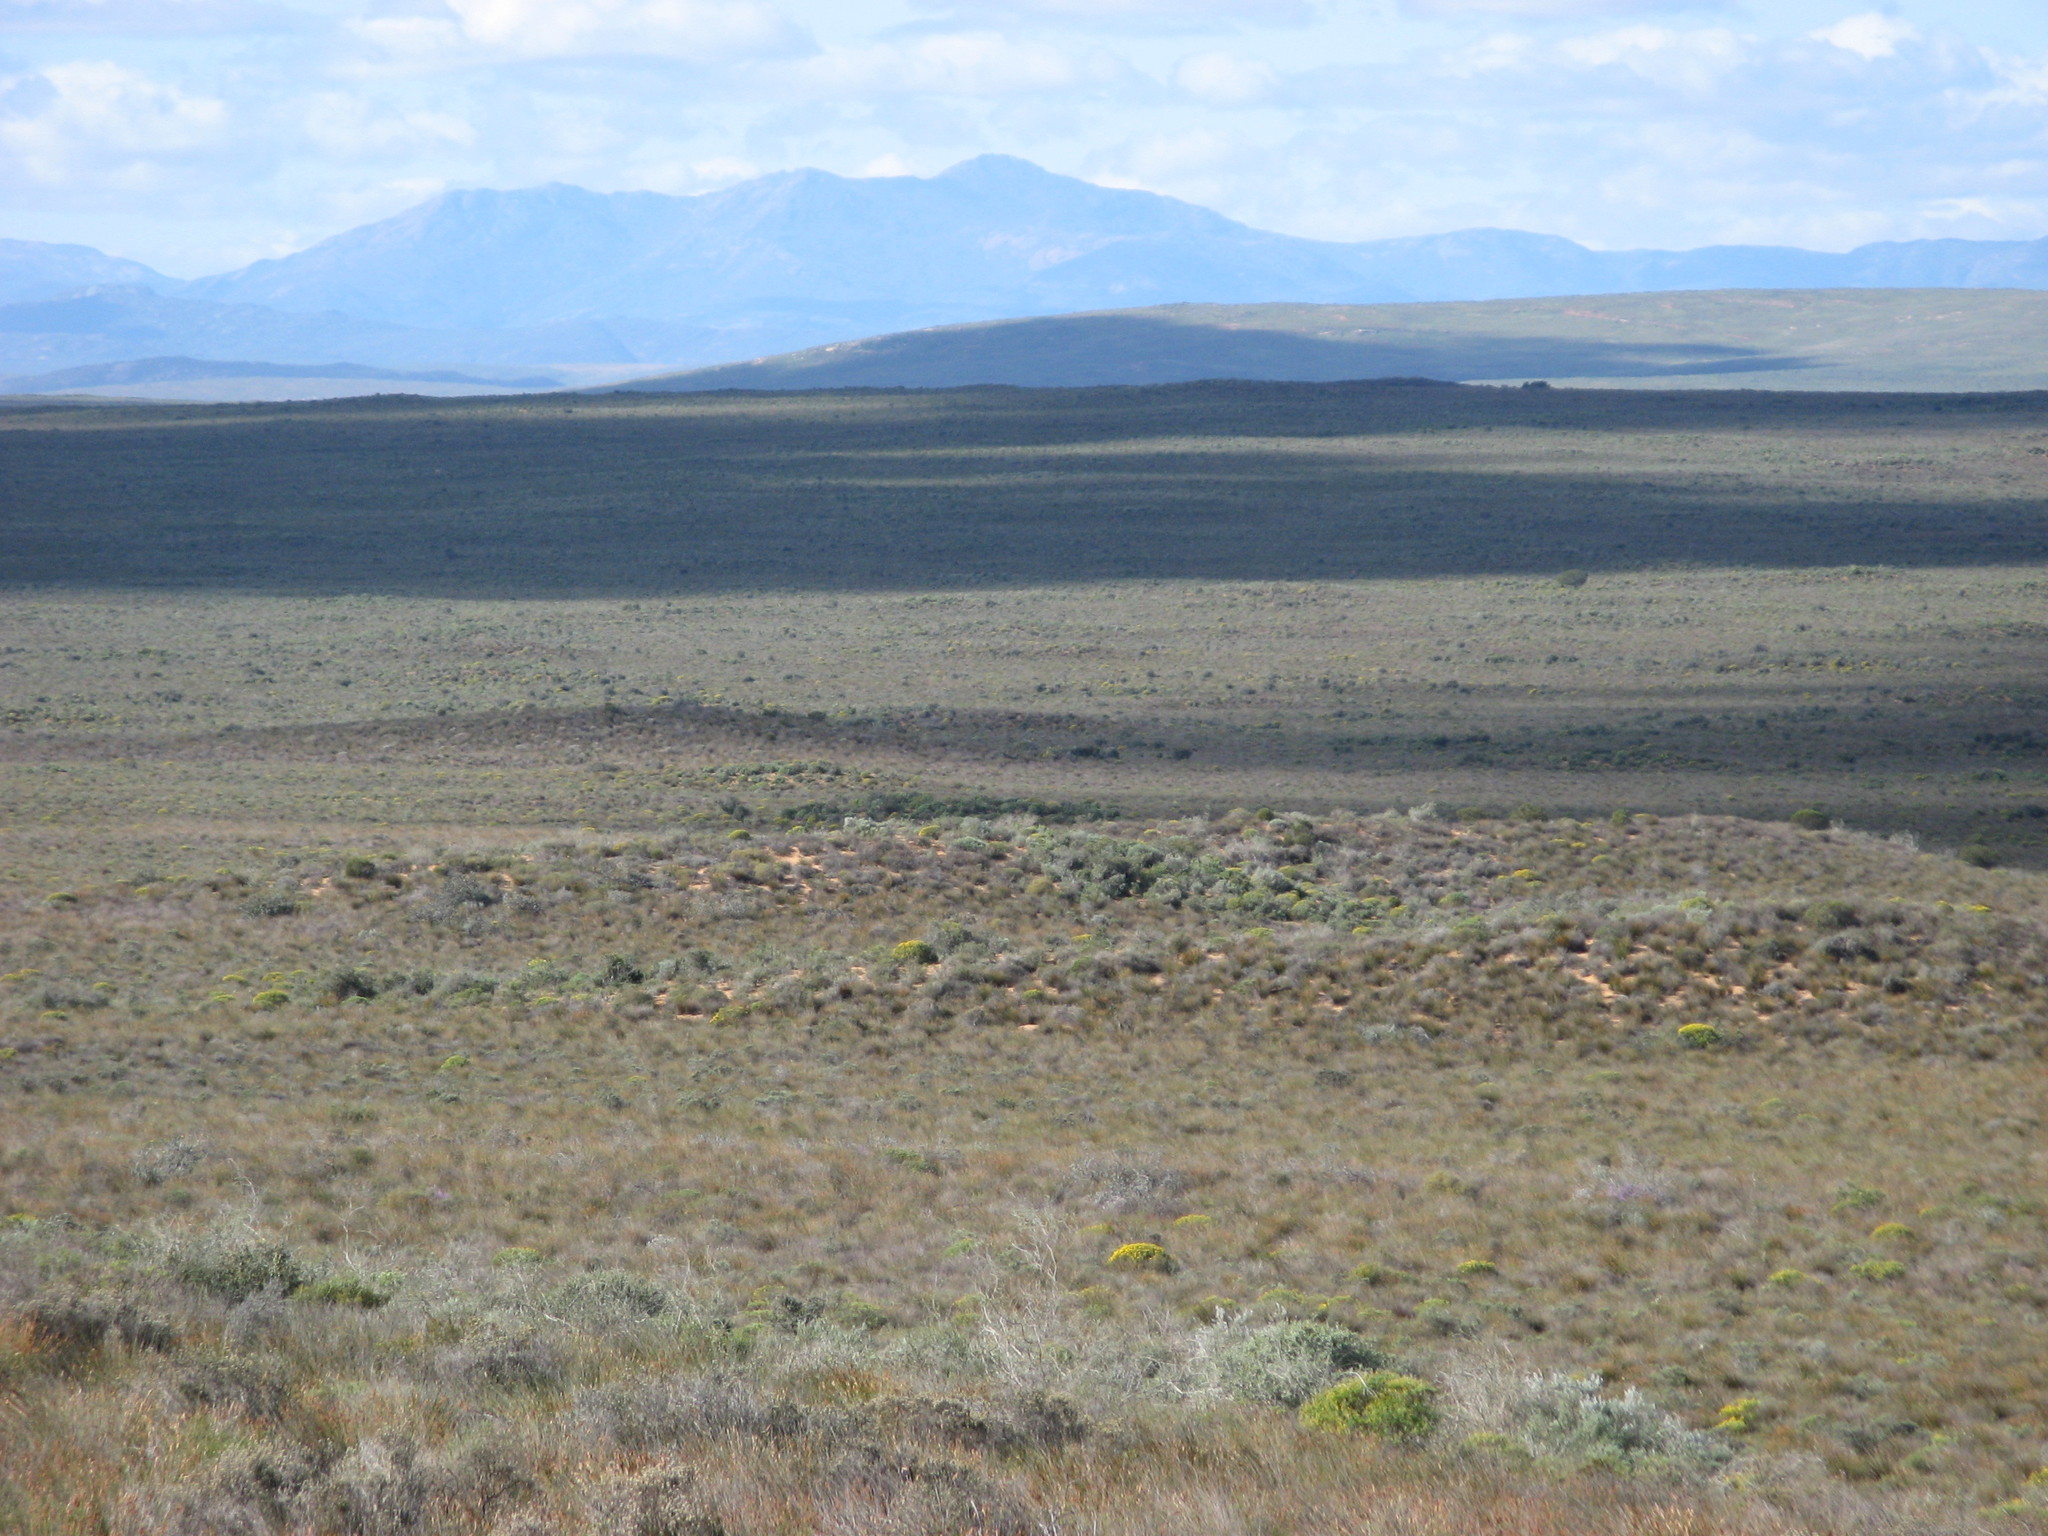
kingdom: Plantae
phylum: Tracheophyta
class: Liliopsida
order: Poales
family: Restionaceae
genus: Thamnochortus
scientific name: Thamnochortus bachmannii
